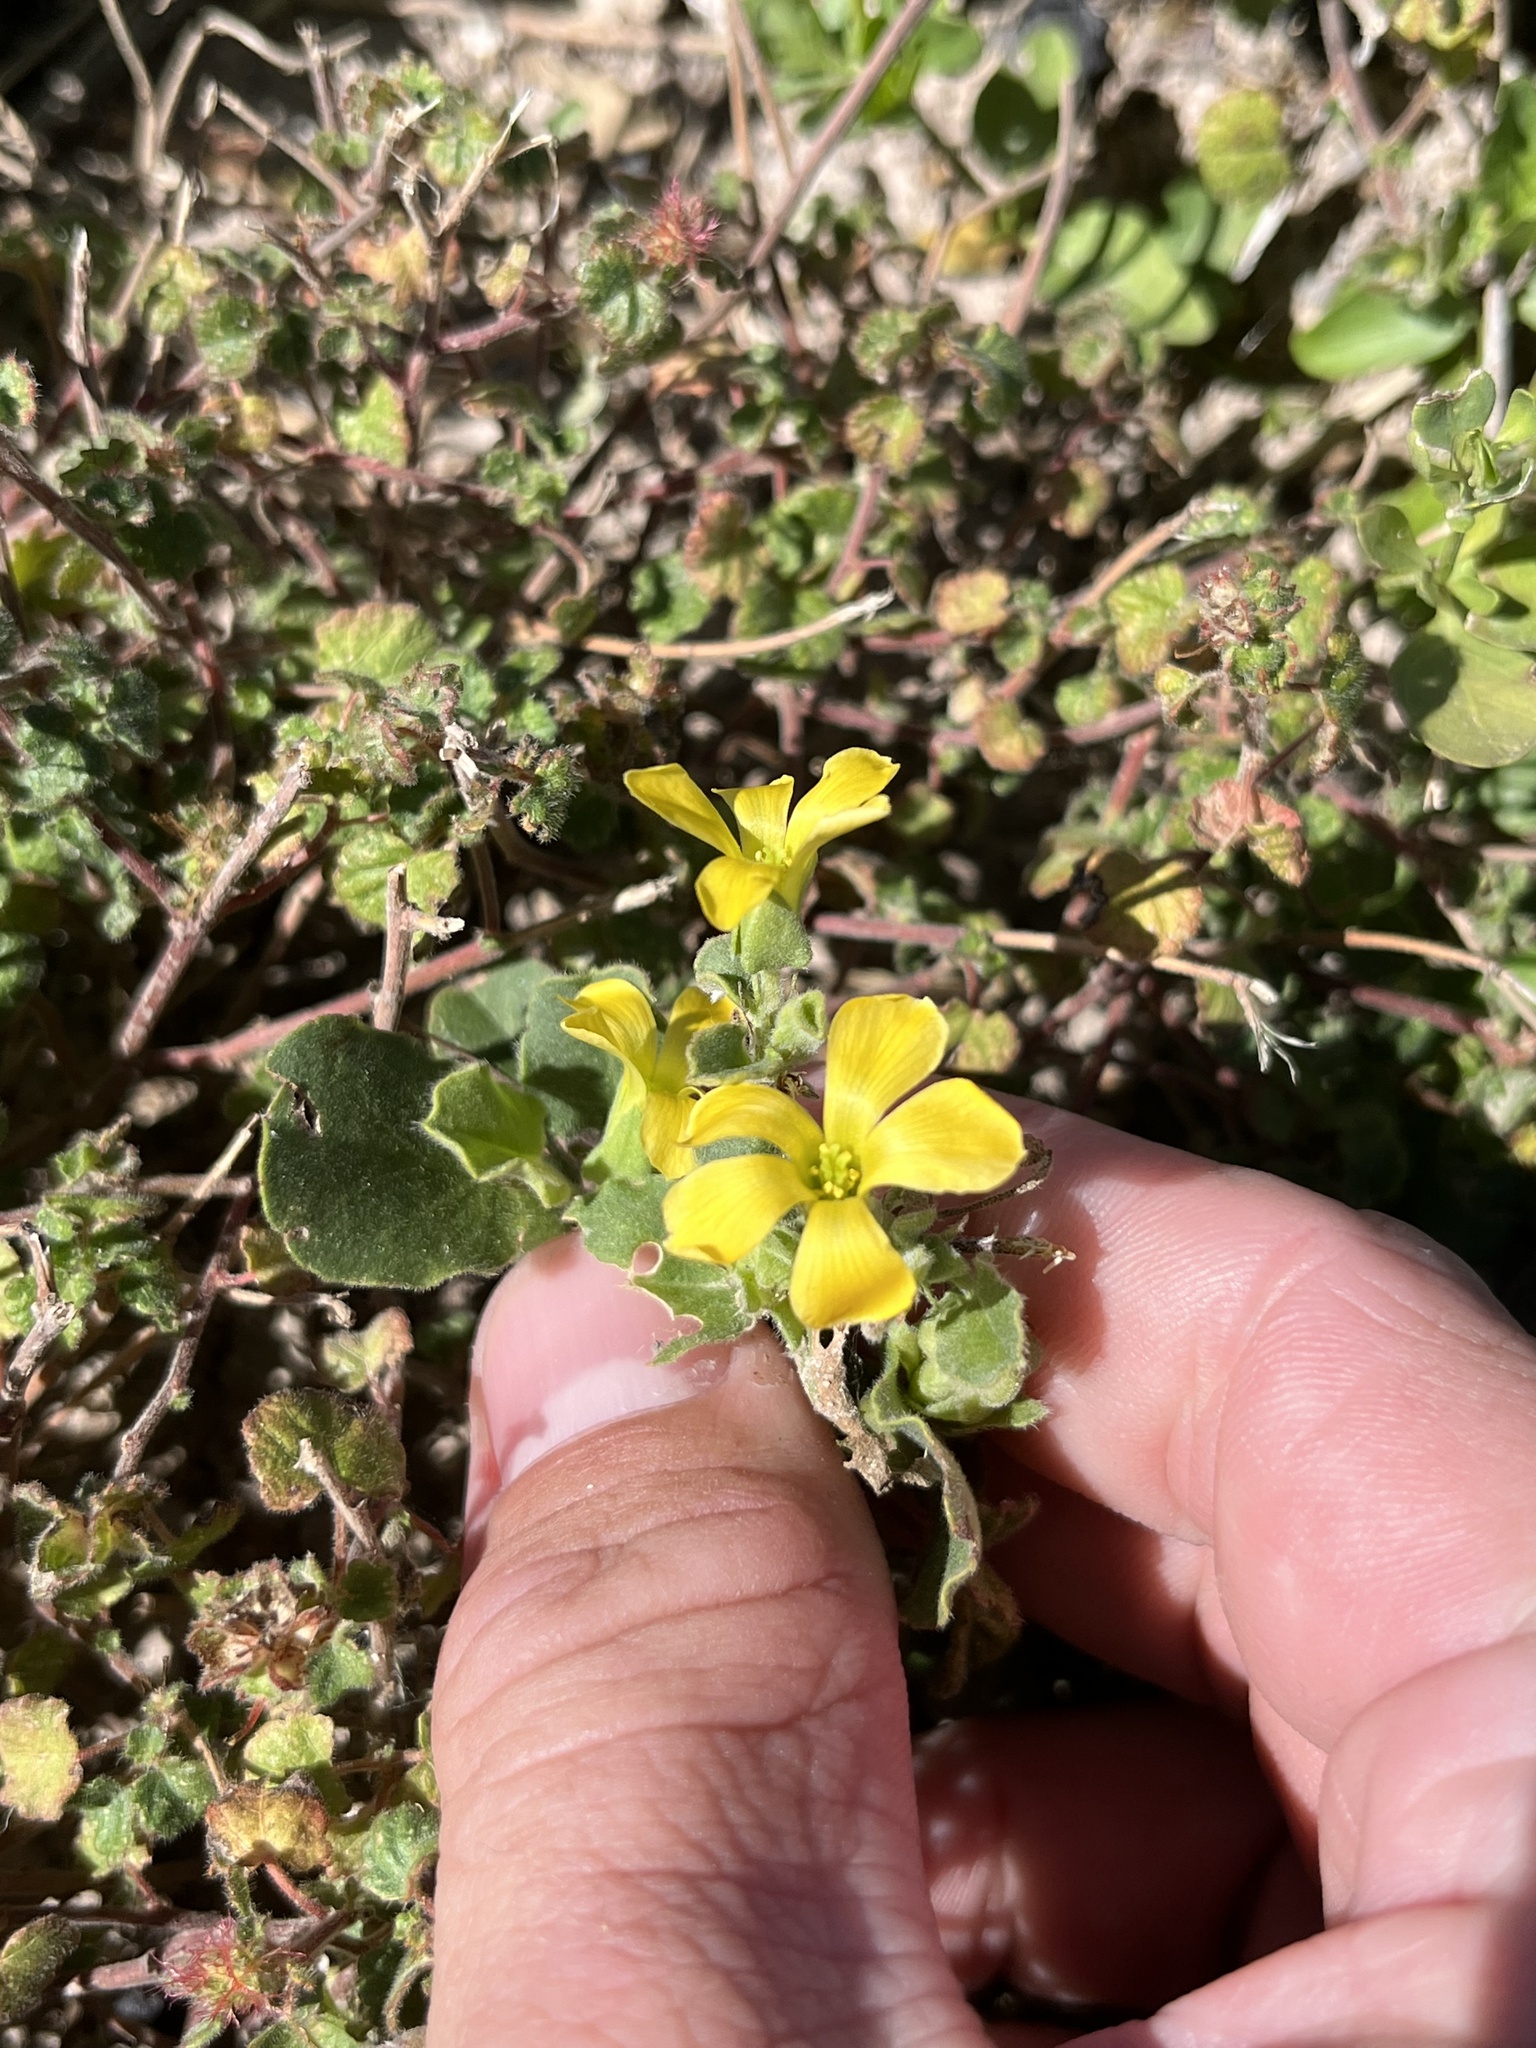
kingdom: Plantae
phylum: Tracheophyta
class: Magnoliopsida
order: Oxalidales
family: Oxalidaceae
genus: Oxalis
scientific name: Oxalis dichondrifolia
